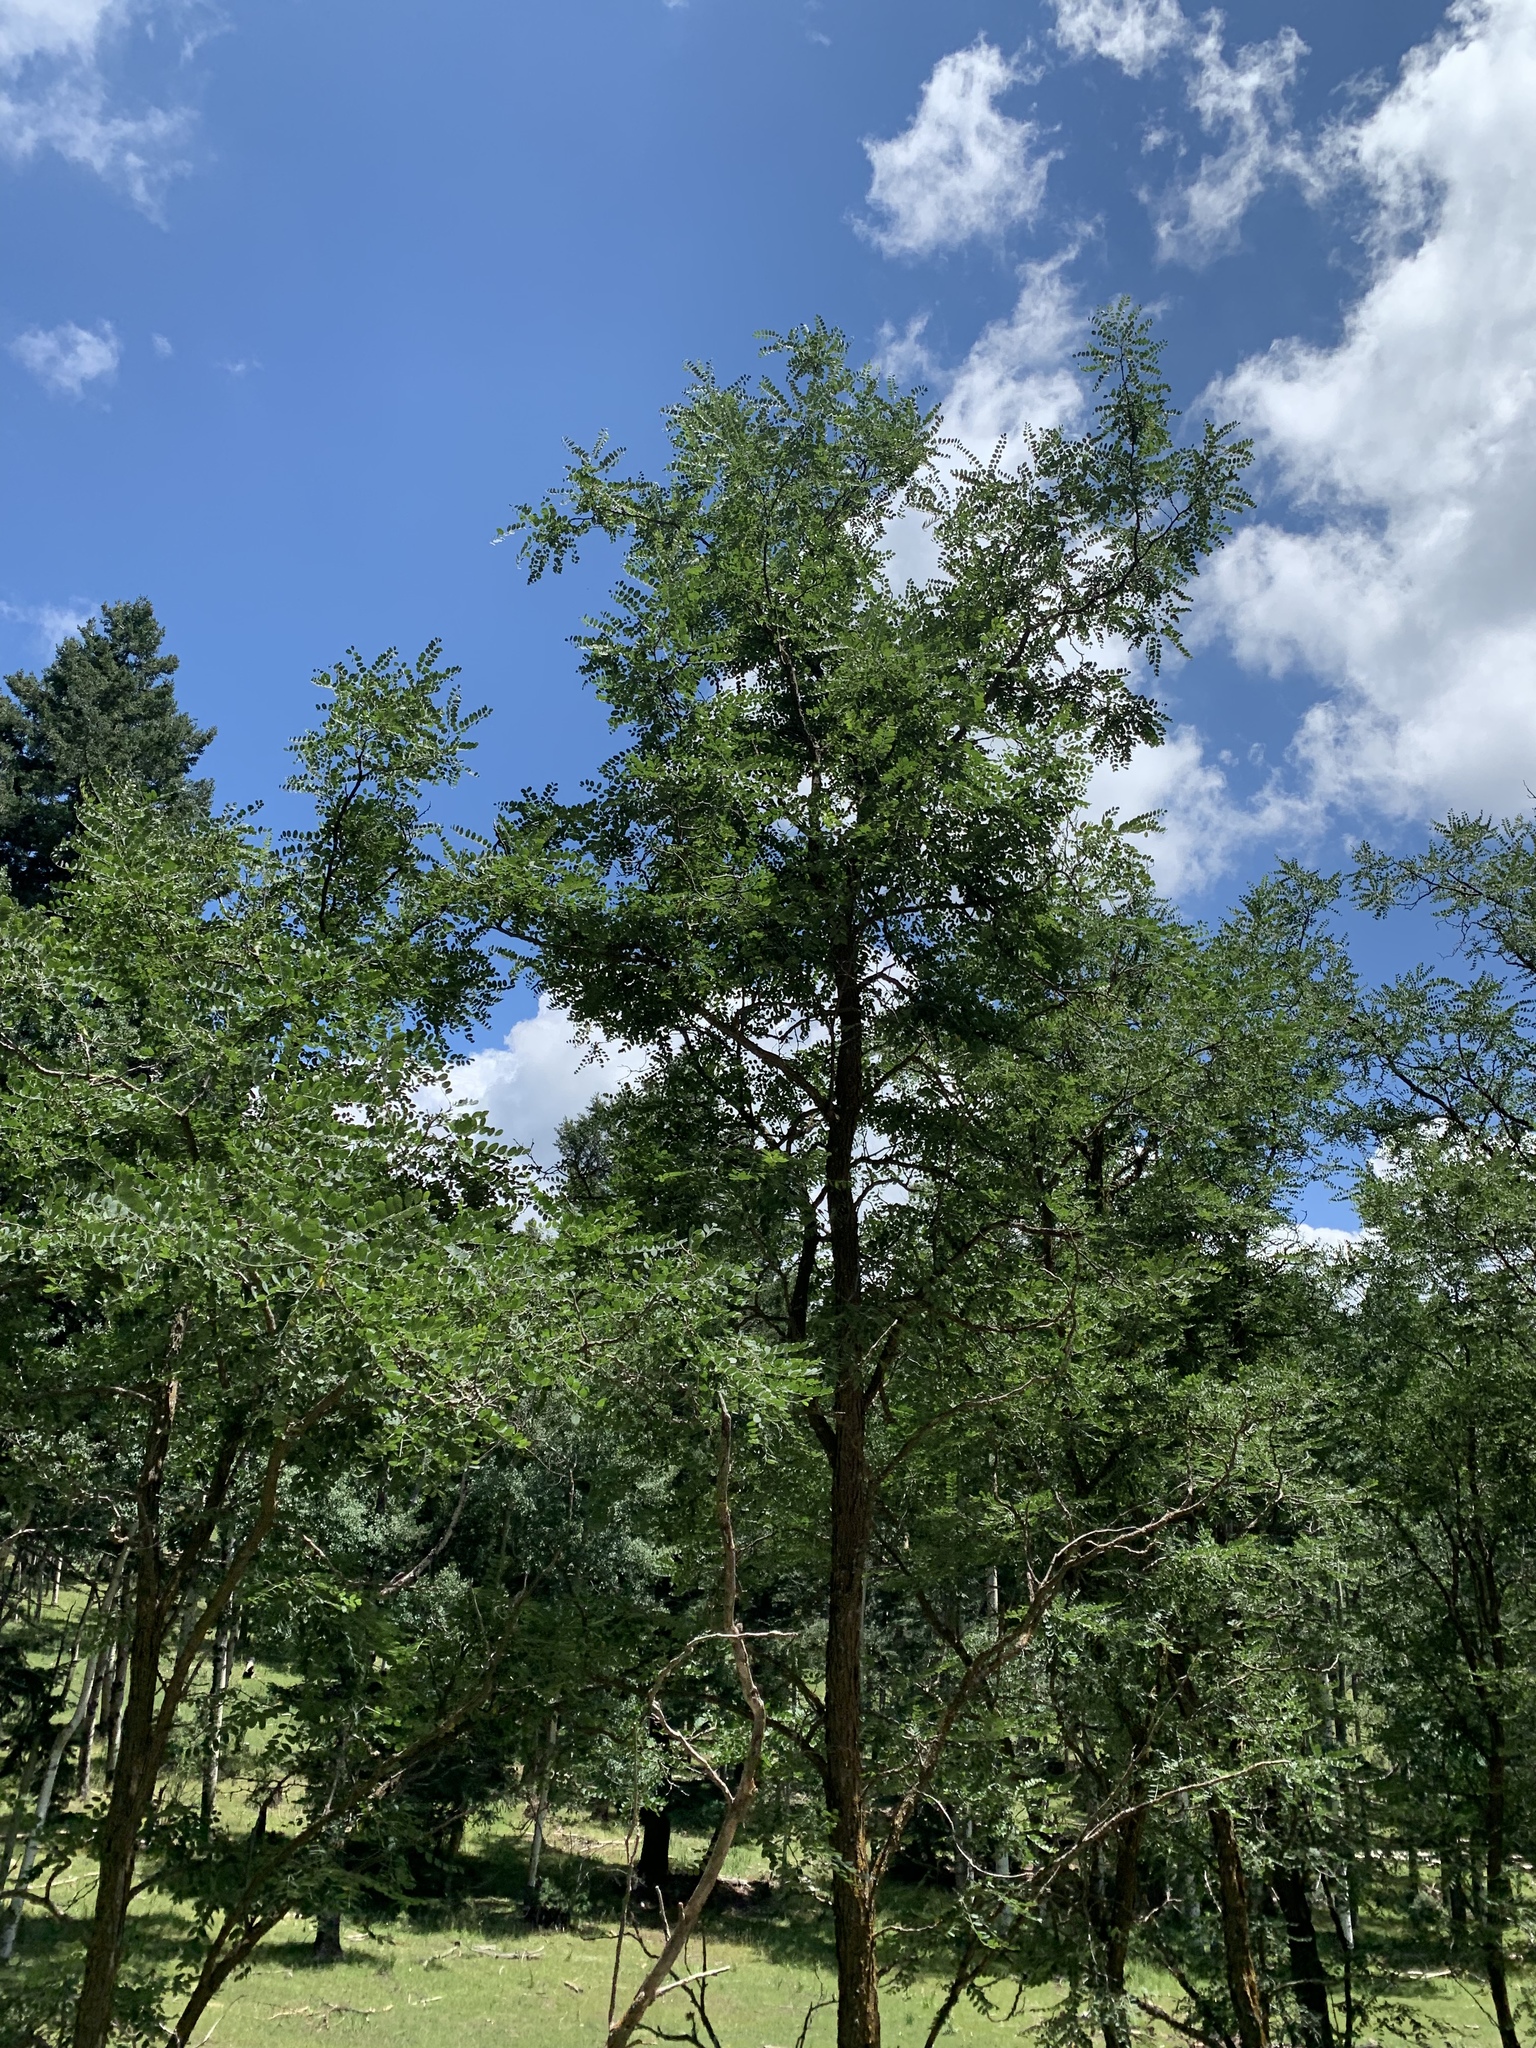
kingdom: Plantae
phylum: Tracheophyta
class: Magnoliopsida
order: Fabales
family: Fabaceae
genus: Robinia
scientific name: Robinia neomexicana
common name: New mexico locust
